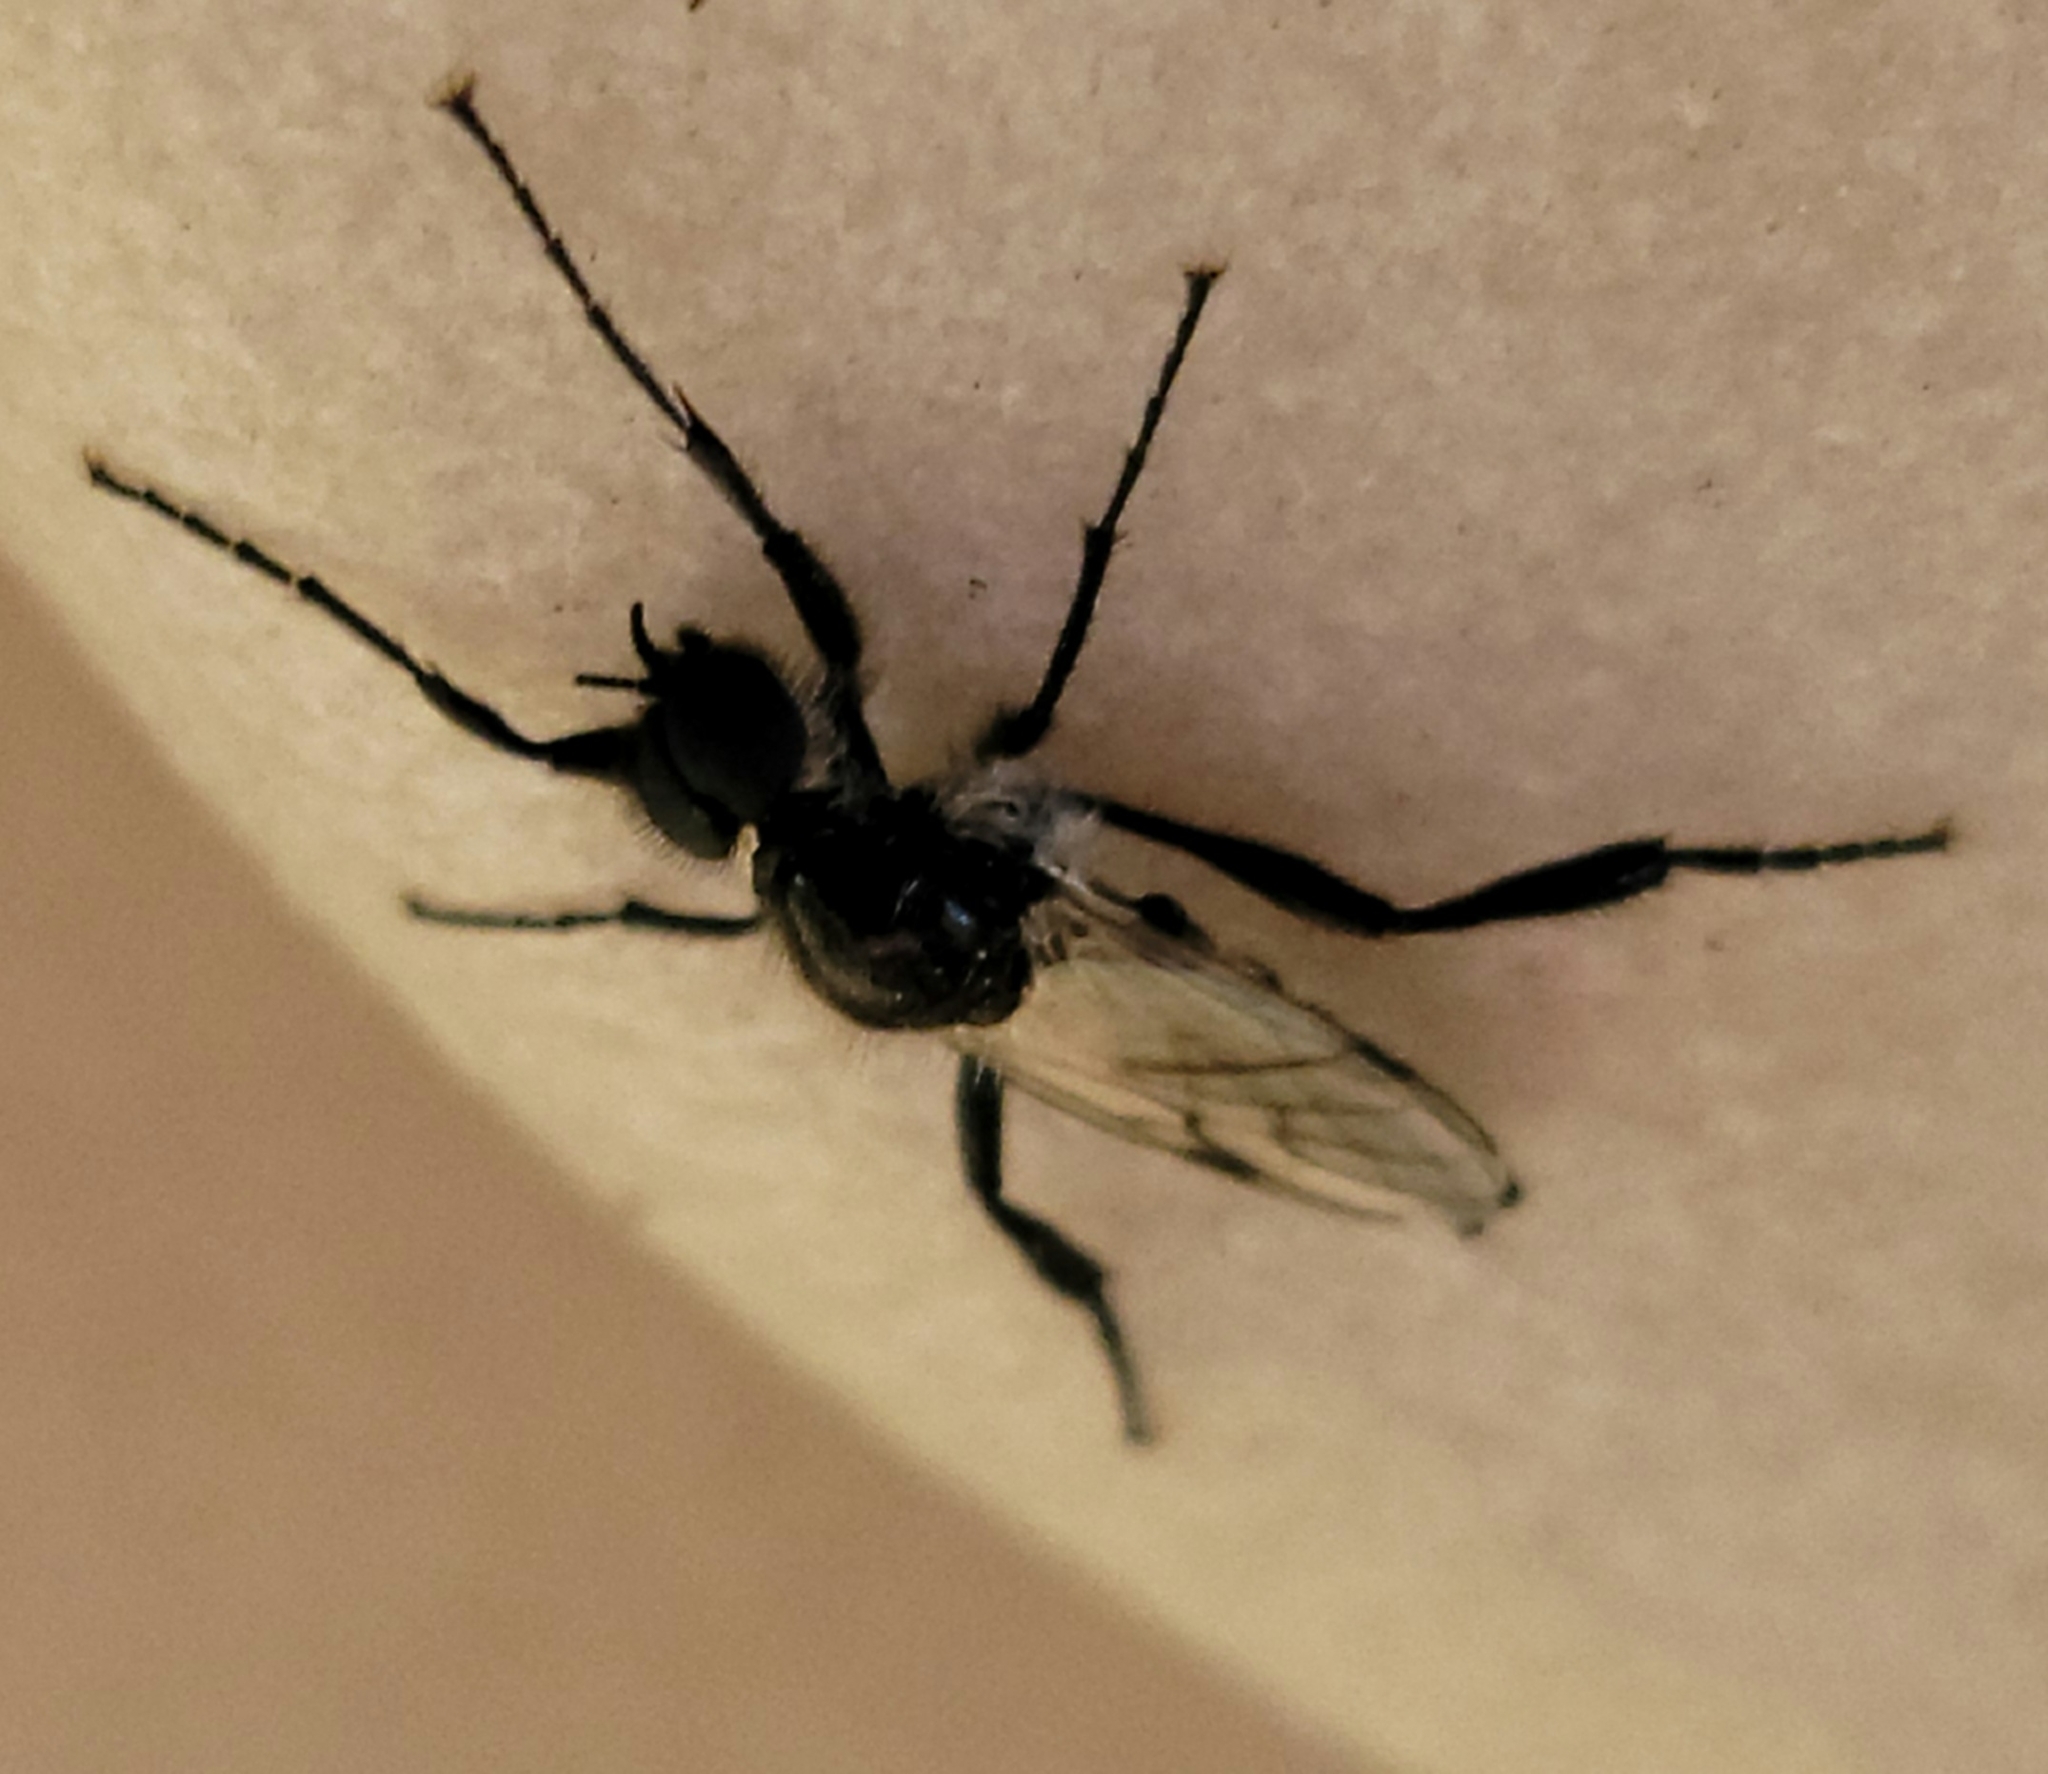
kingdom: Animalia
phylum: Arthropoda
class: Insecta
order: Diptera
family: Bibionidae
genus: Bibio
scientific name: Bibio albipennis
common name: White-winged march fly
